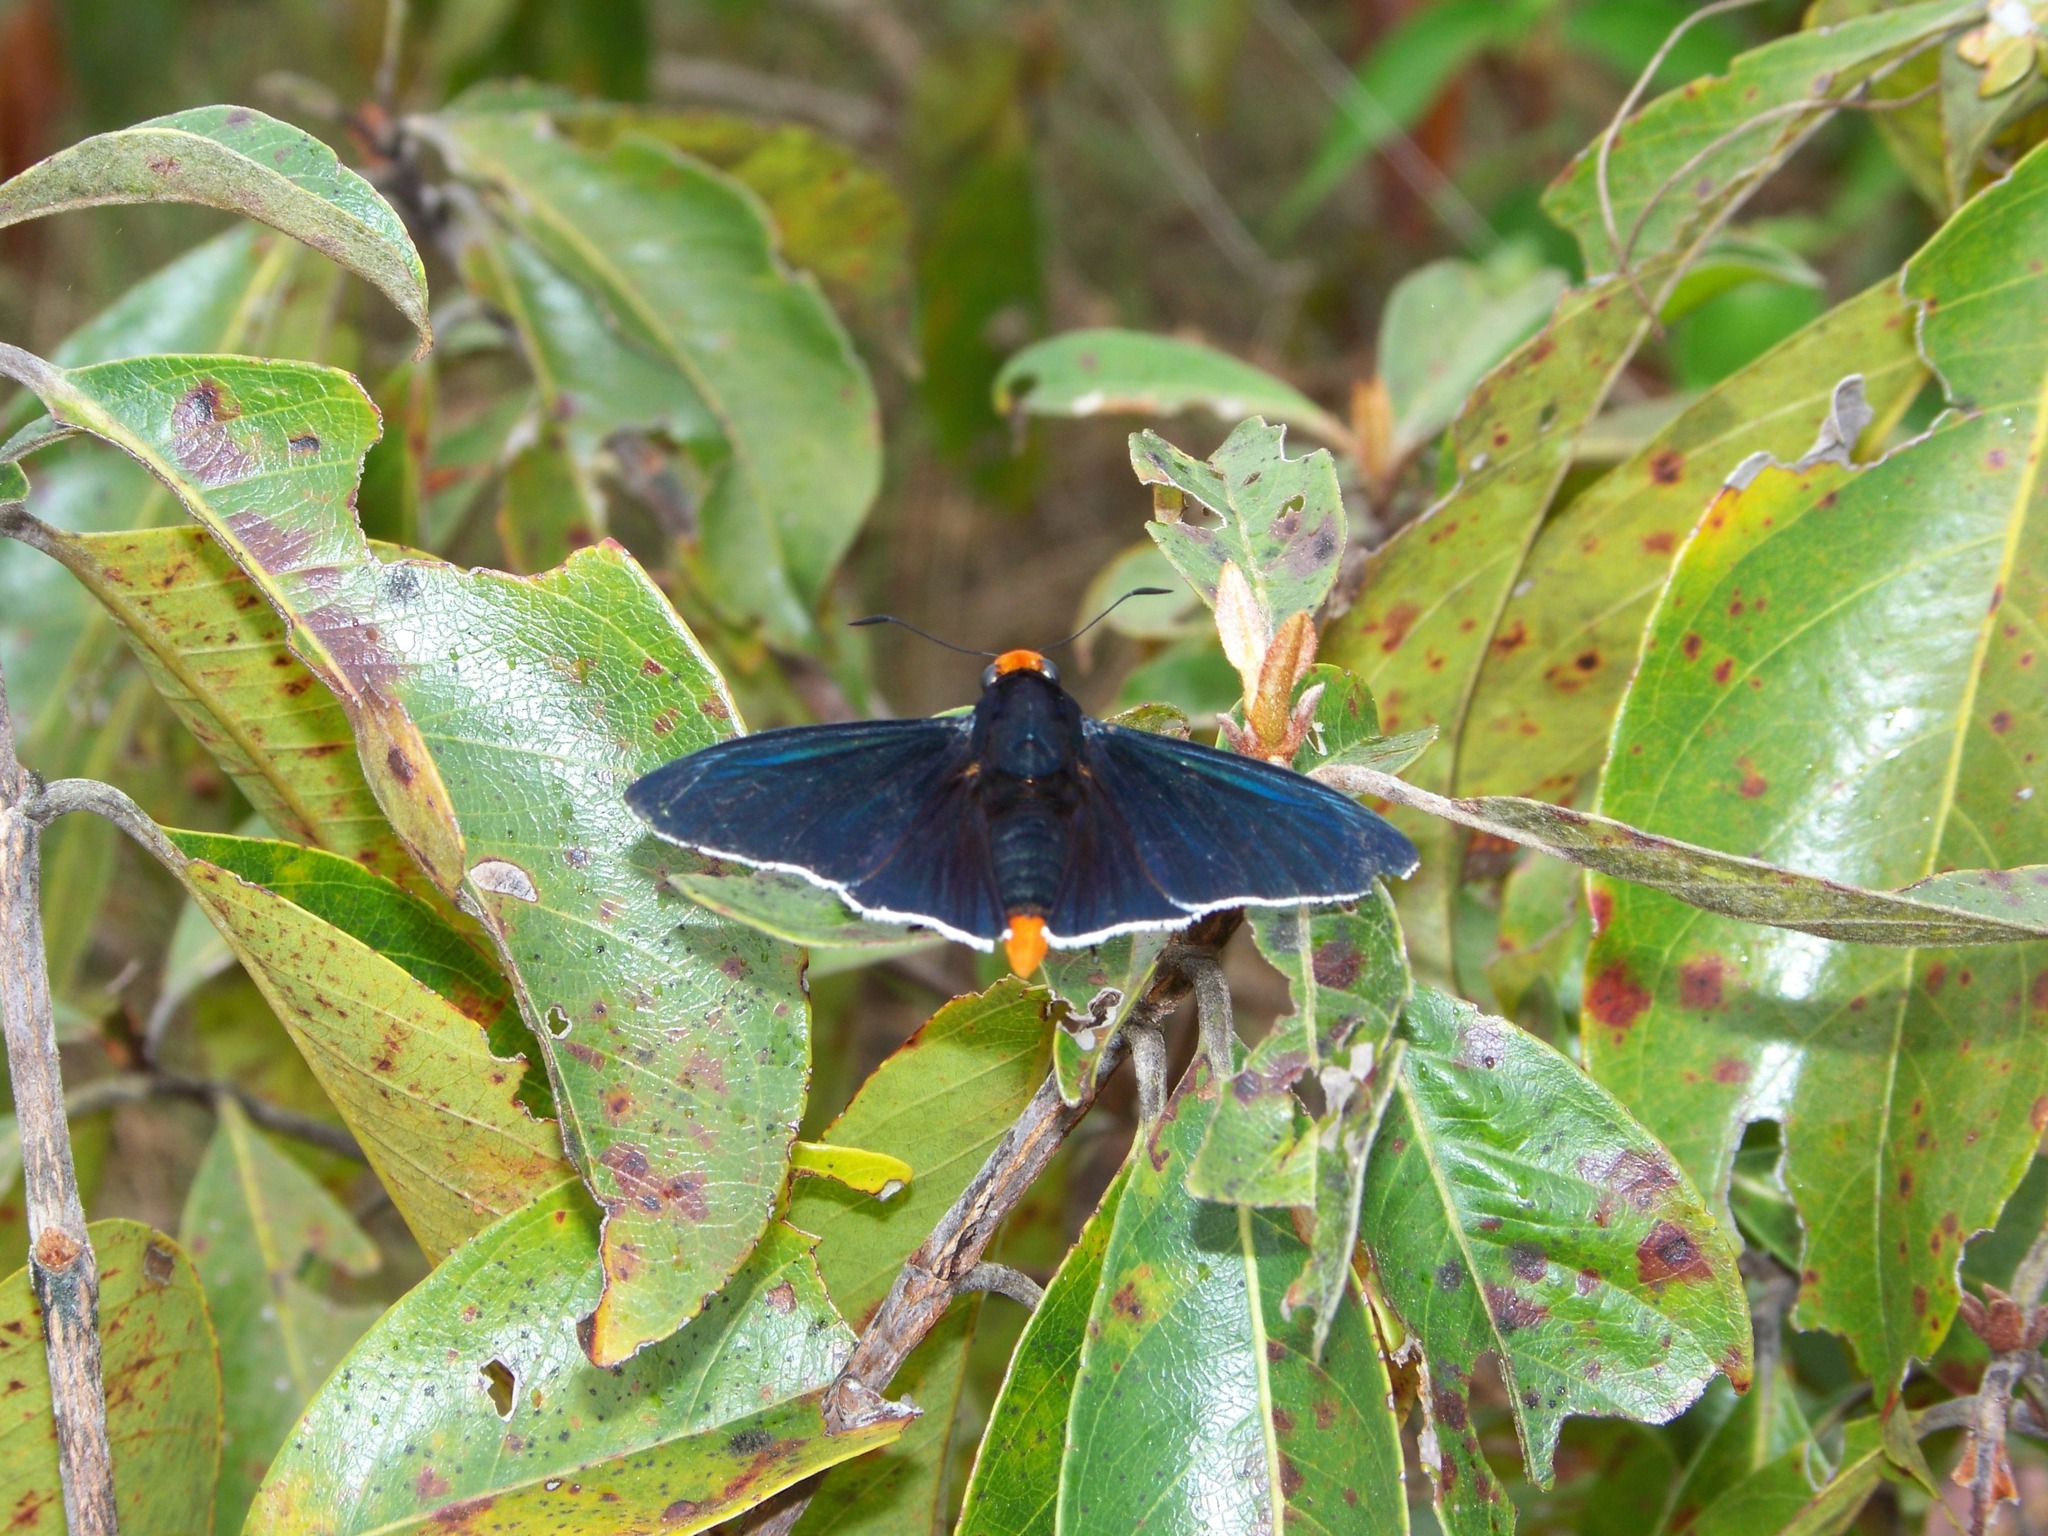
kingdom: Animalia
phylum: Arthropoda
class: Insecta
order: Lepidoptera
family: Hesperiidae
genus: Pyrrhopyge
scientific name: Pyrrhopyge phidias
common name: Original firetip
